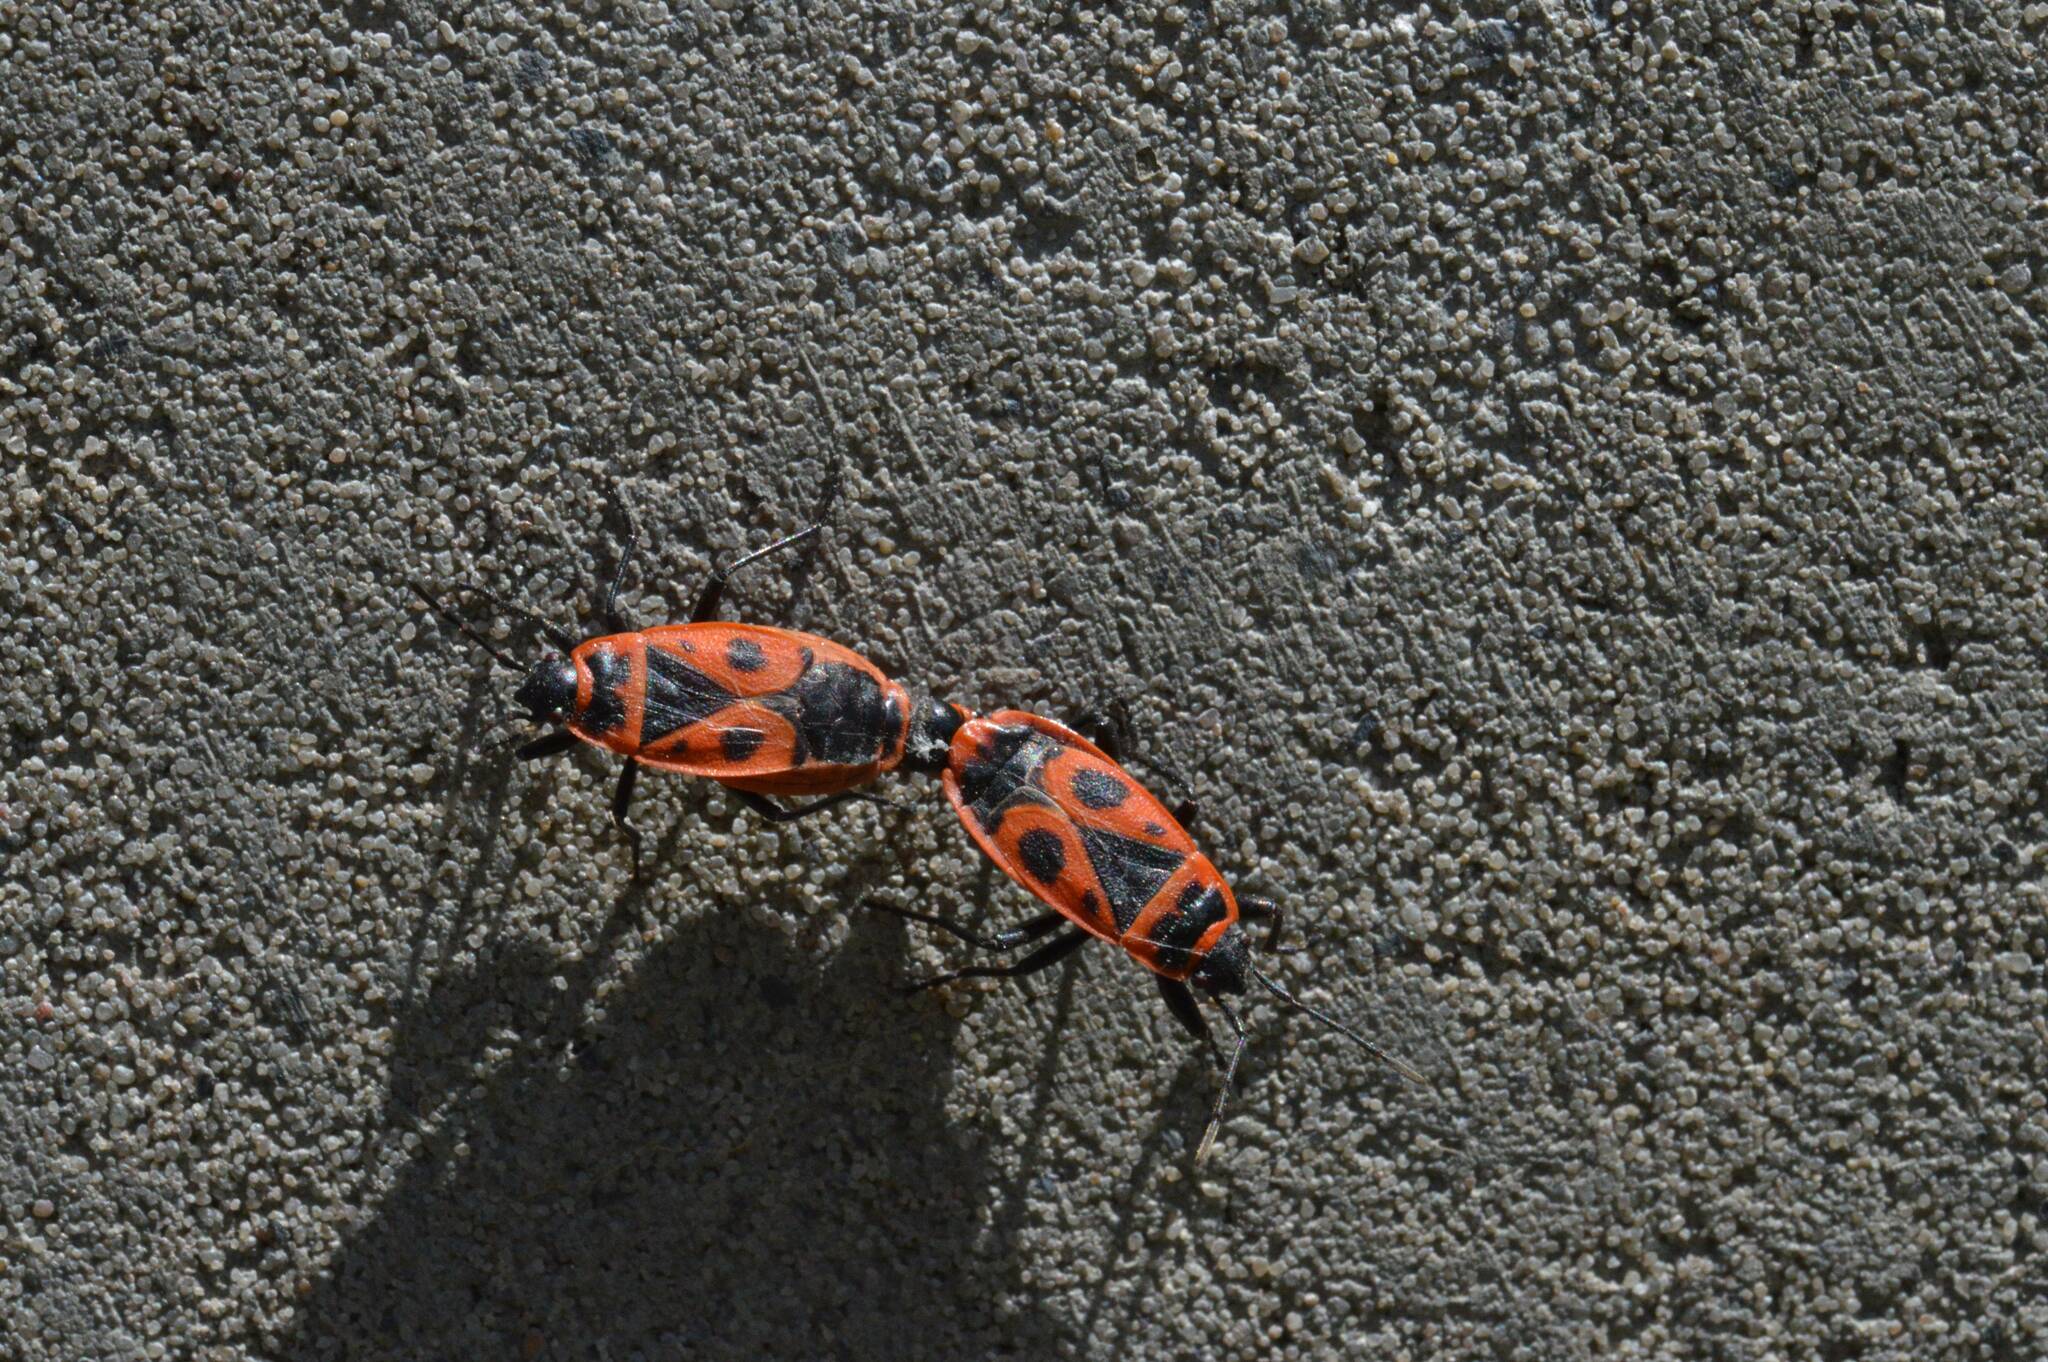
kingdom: Animalia
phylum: Arthropoda
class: Insecta
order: Hemiptera
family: Pyrrhocoridae
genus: Pyrrhocoris
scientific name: Pyrrhocoris apterus
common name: Firebug
